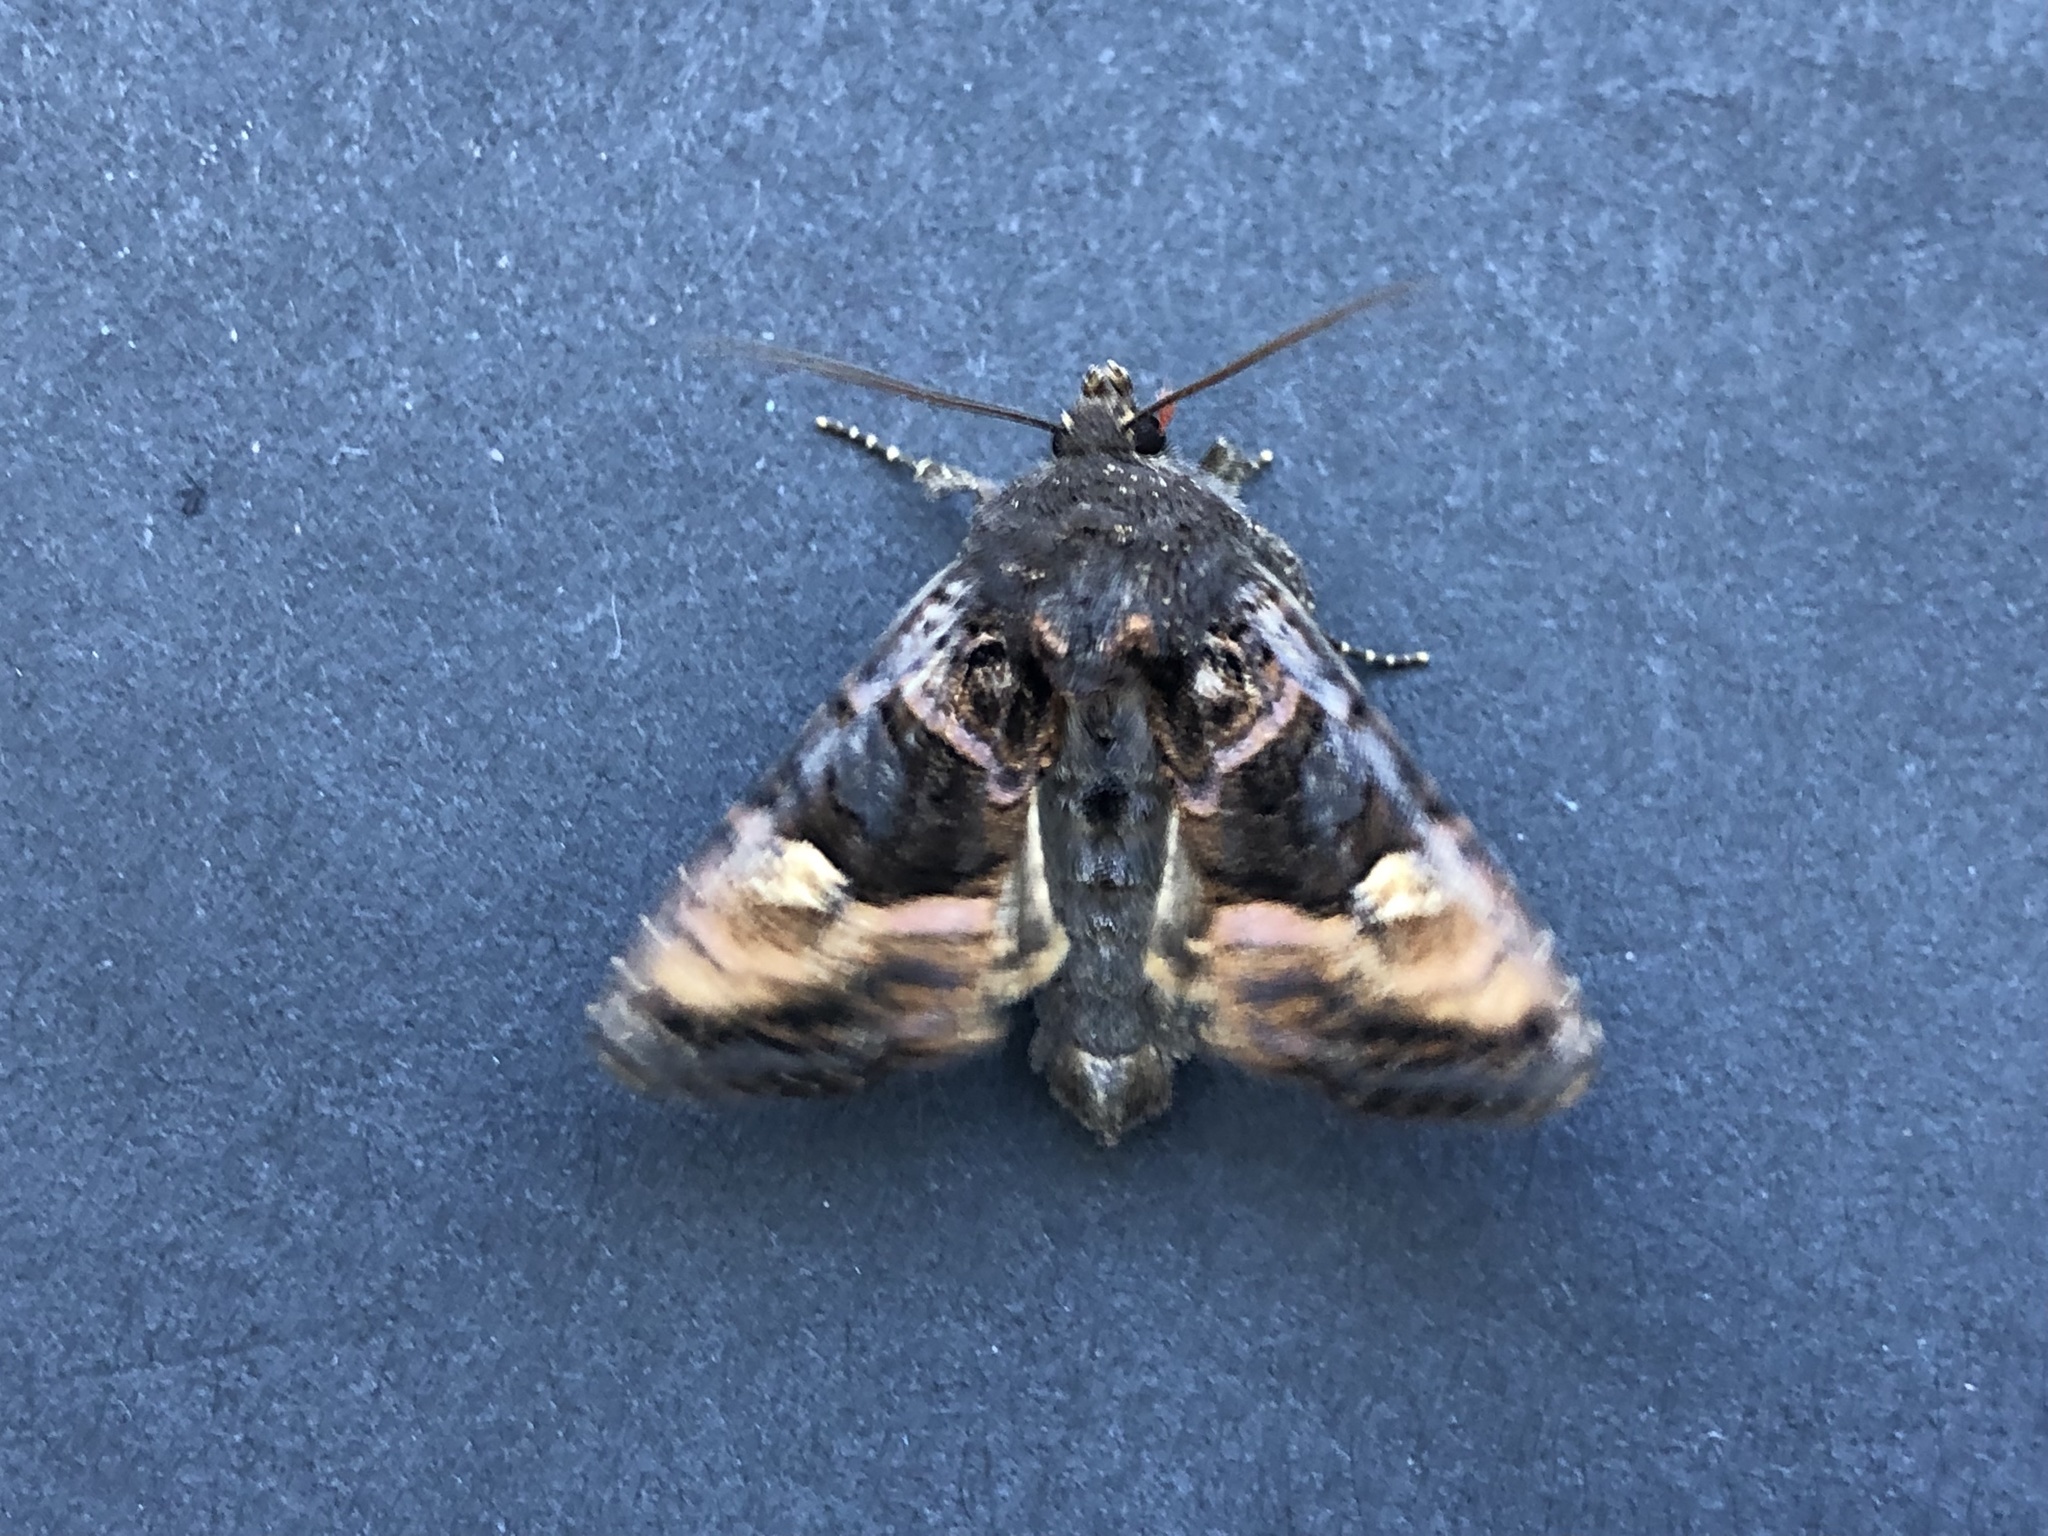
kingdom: Animalia
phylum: Arthropoda
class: Insecta
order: Lepidoptera
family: Noctuidae
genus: Euplexia
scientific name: Euplexia lucipara
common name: Small angle shades
